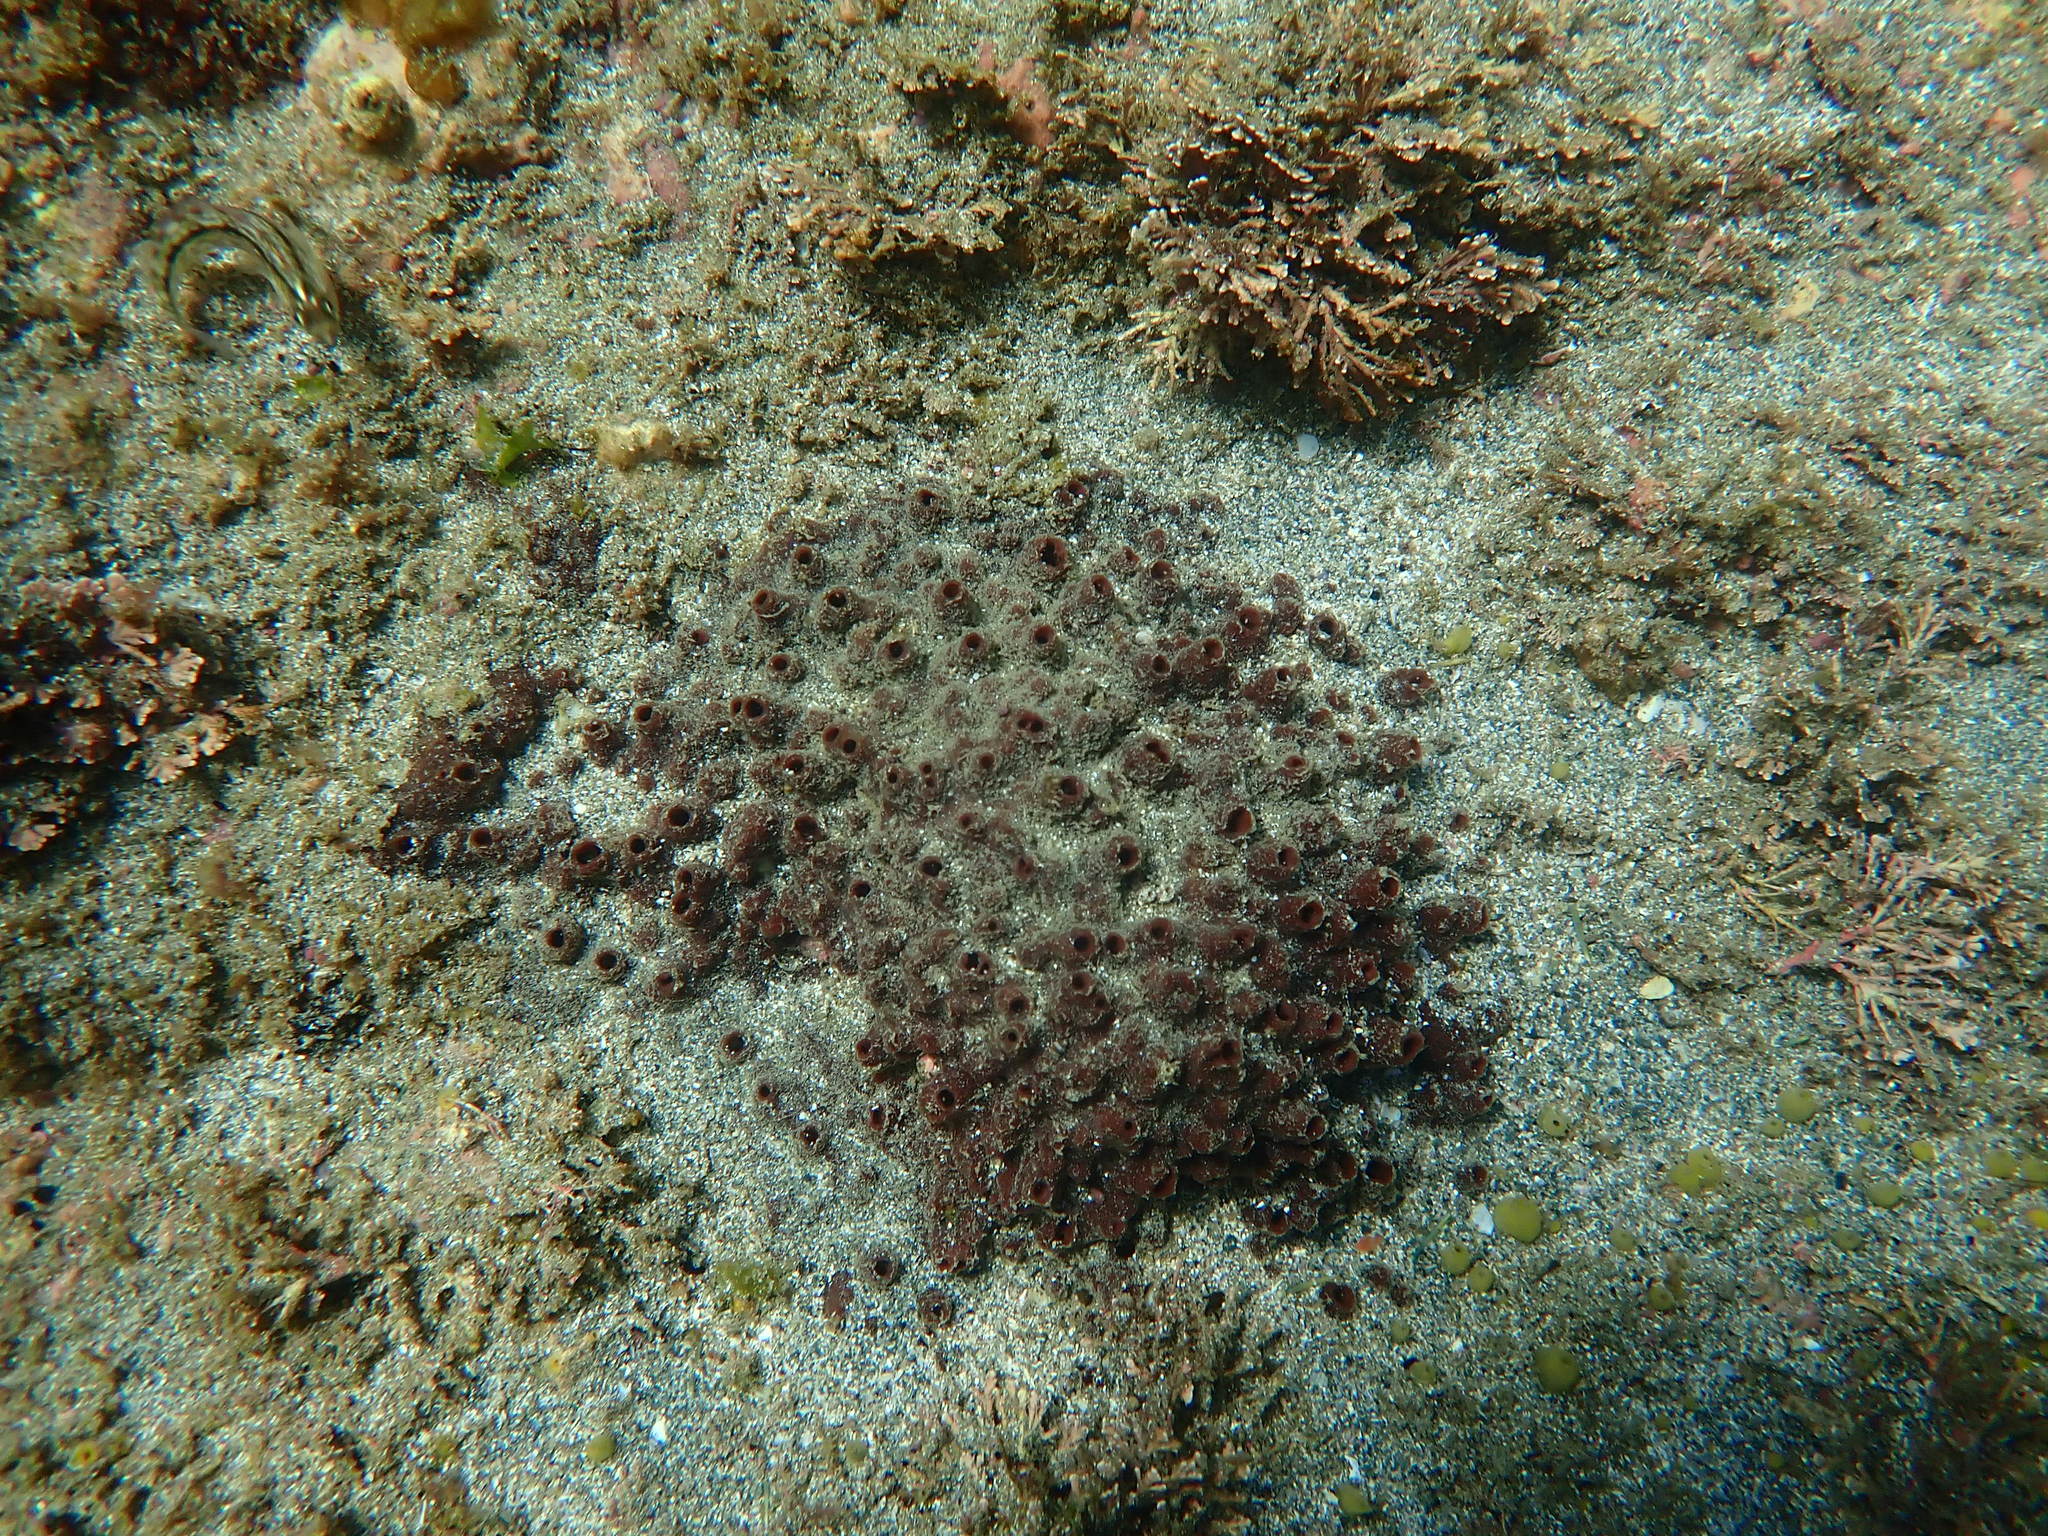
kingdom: Animalia
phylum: Porifera
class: Demospongiae
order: Polymastiida
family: Polymastiidae
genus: Polymastia
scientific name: Polymastia fusca
